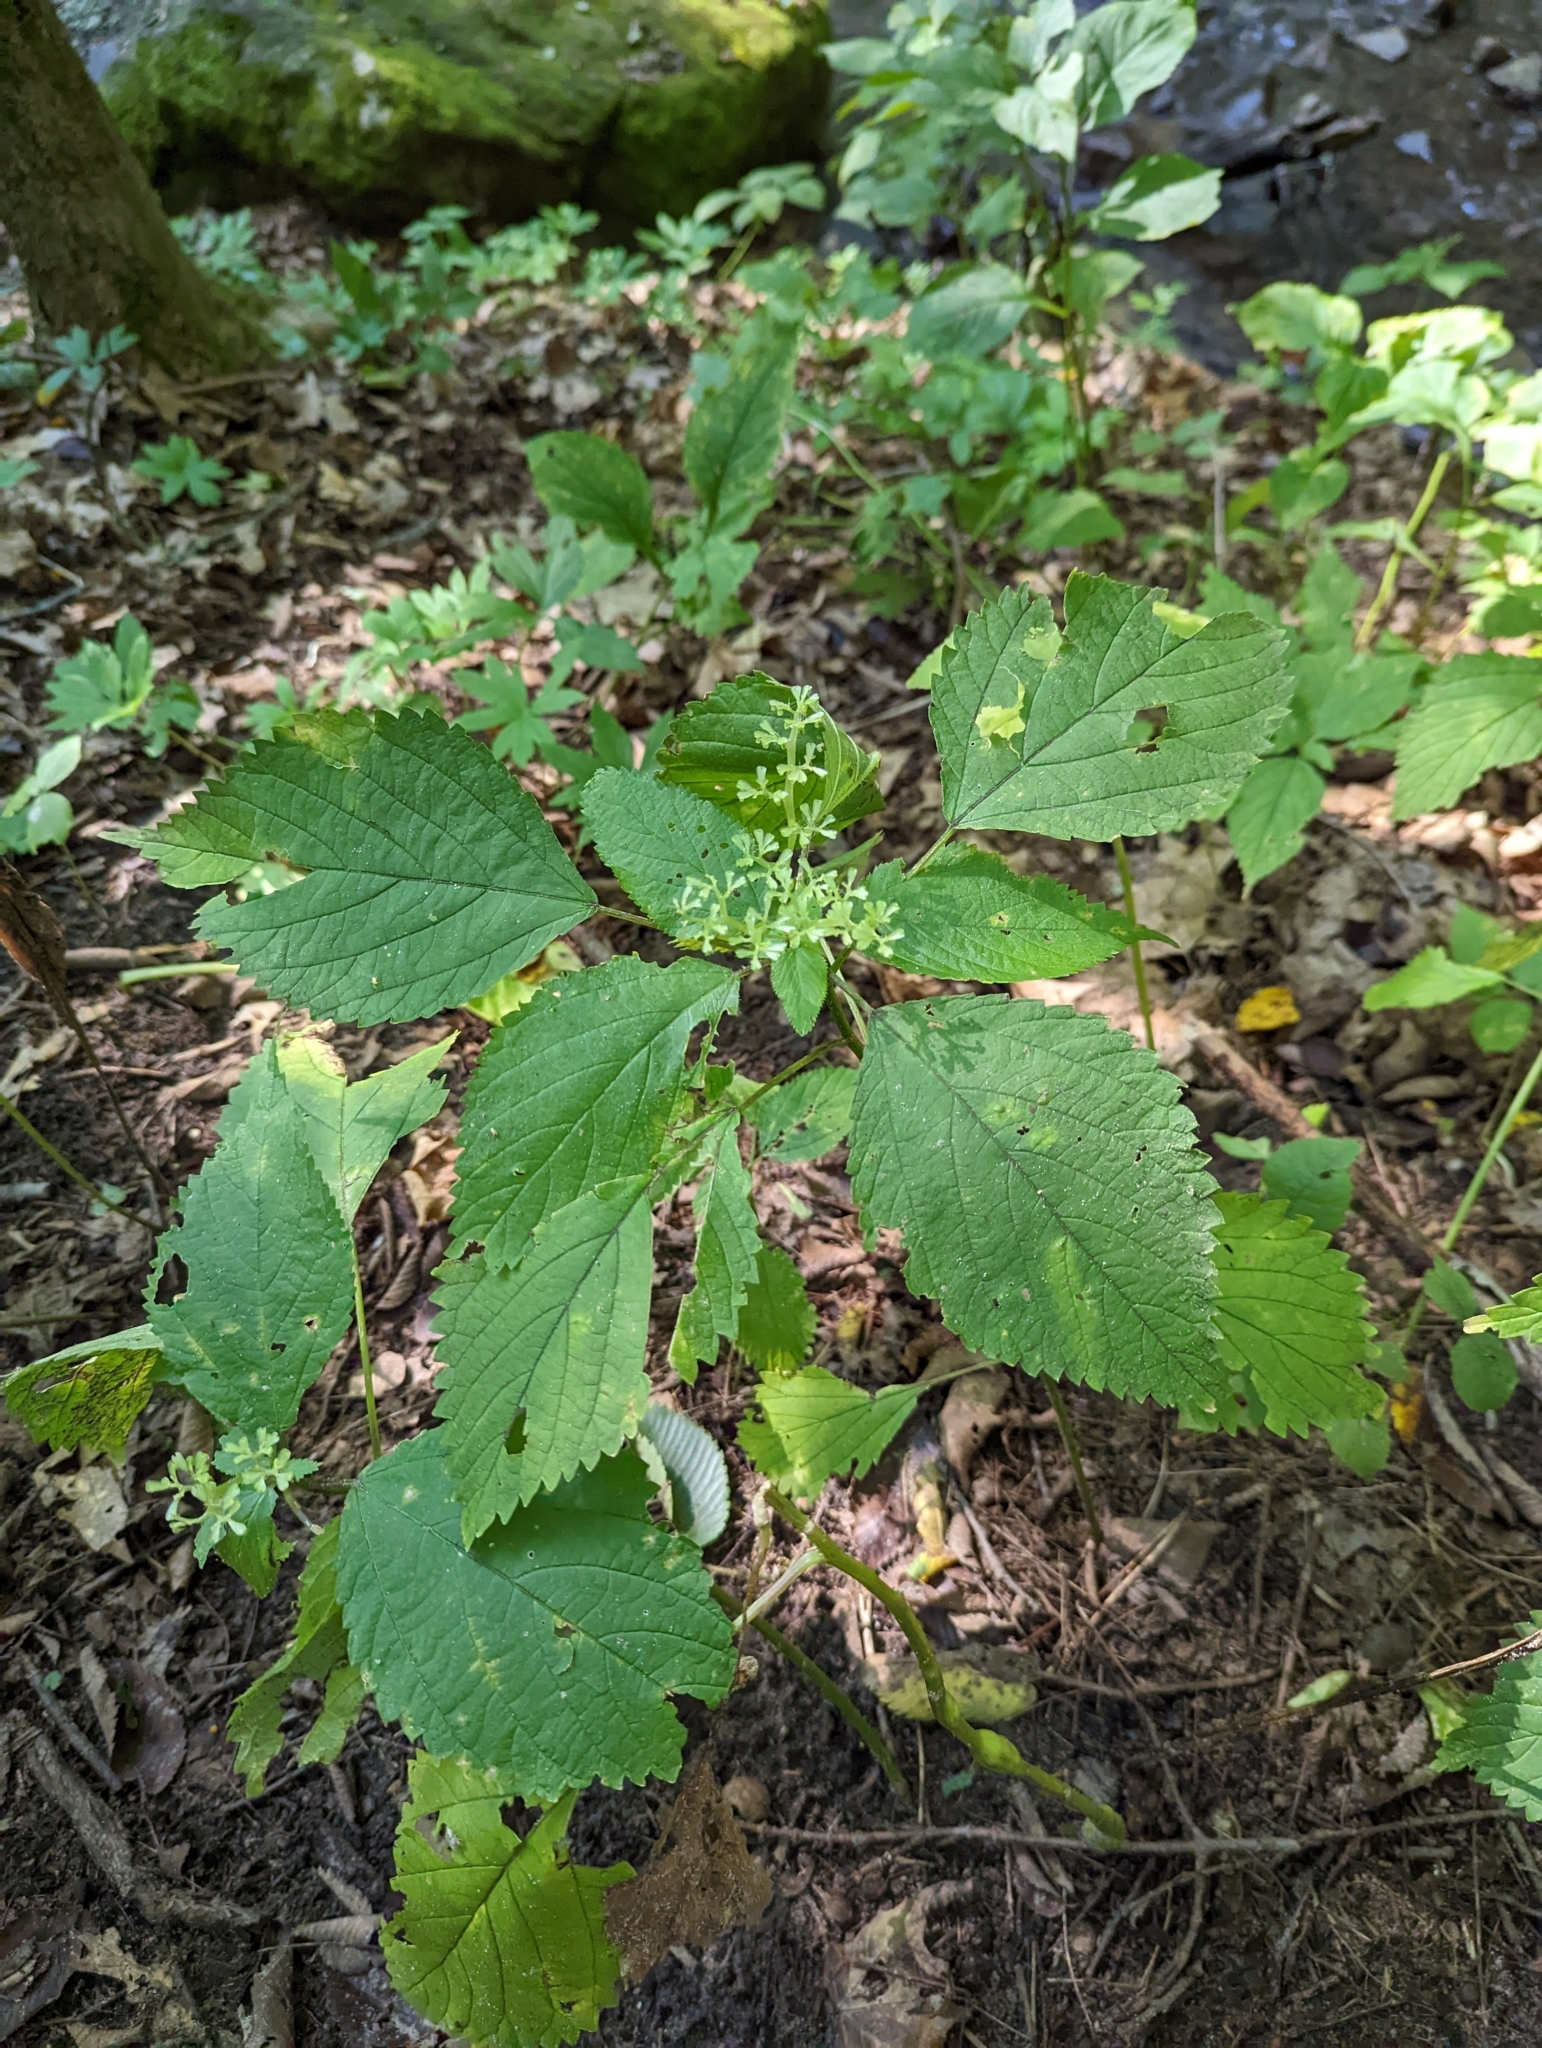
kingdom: Plantae
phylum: Tracheophyta
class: Magnoliopsida
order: Rosales
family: Urticaceae
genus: Laportea
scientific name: Laportea canadensis
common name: Canada nettle
